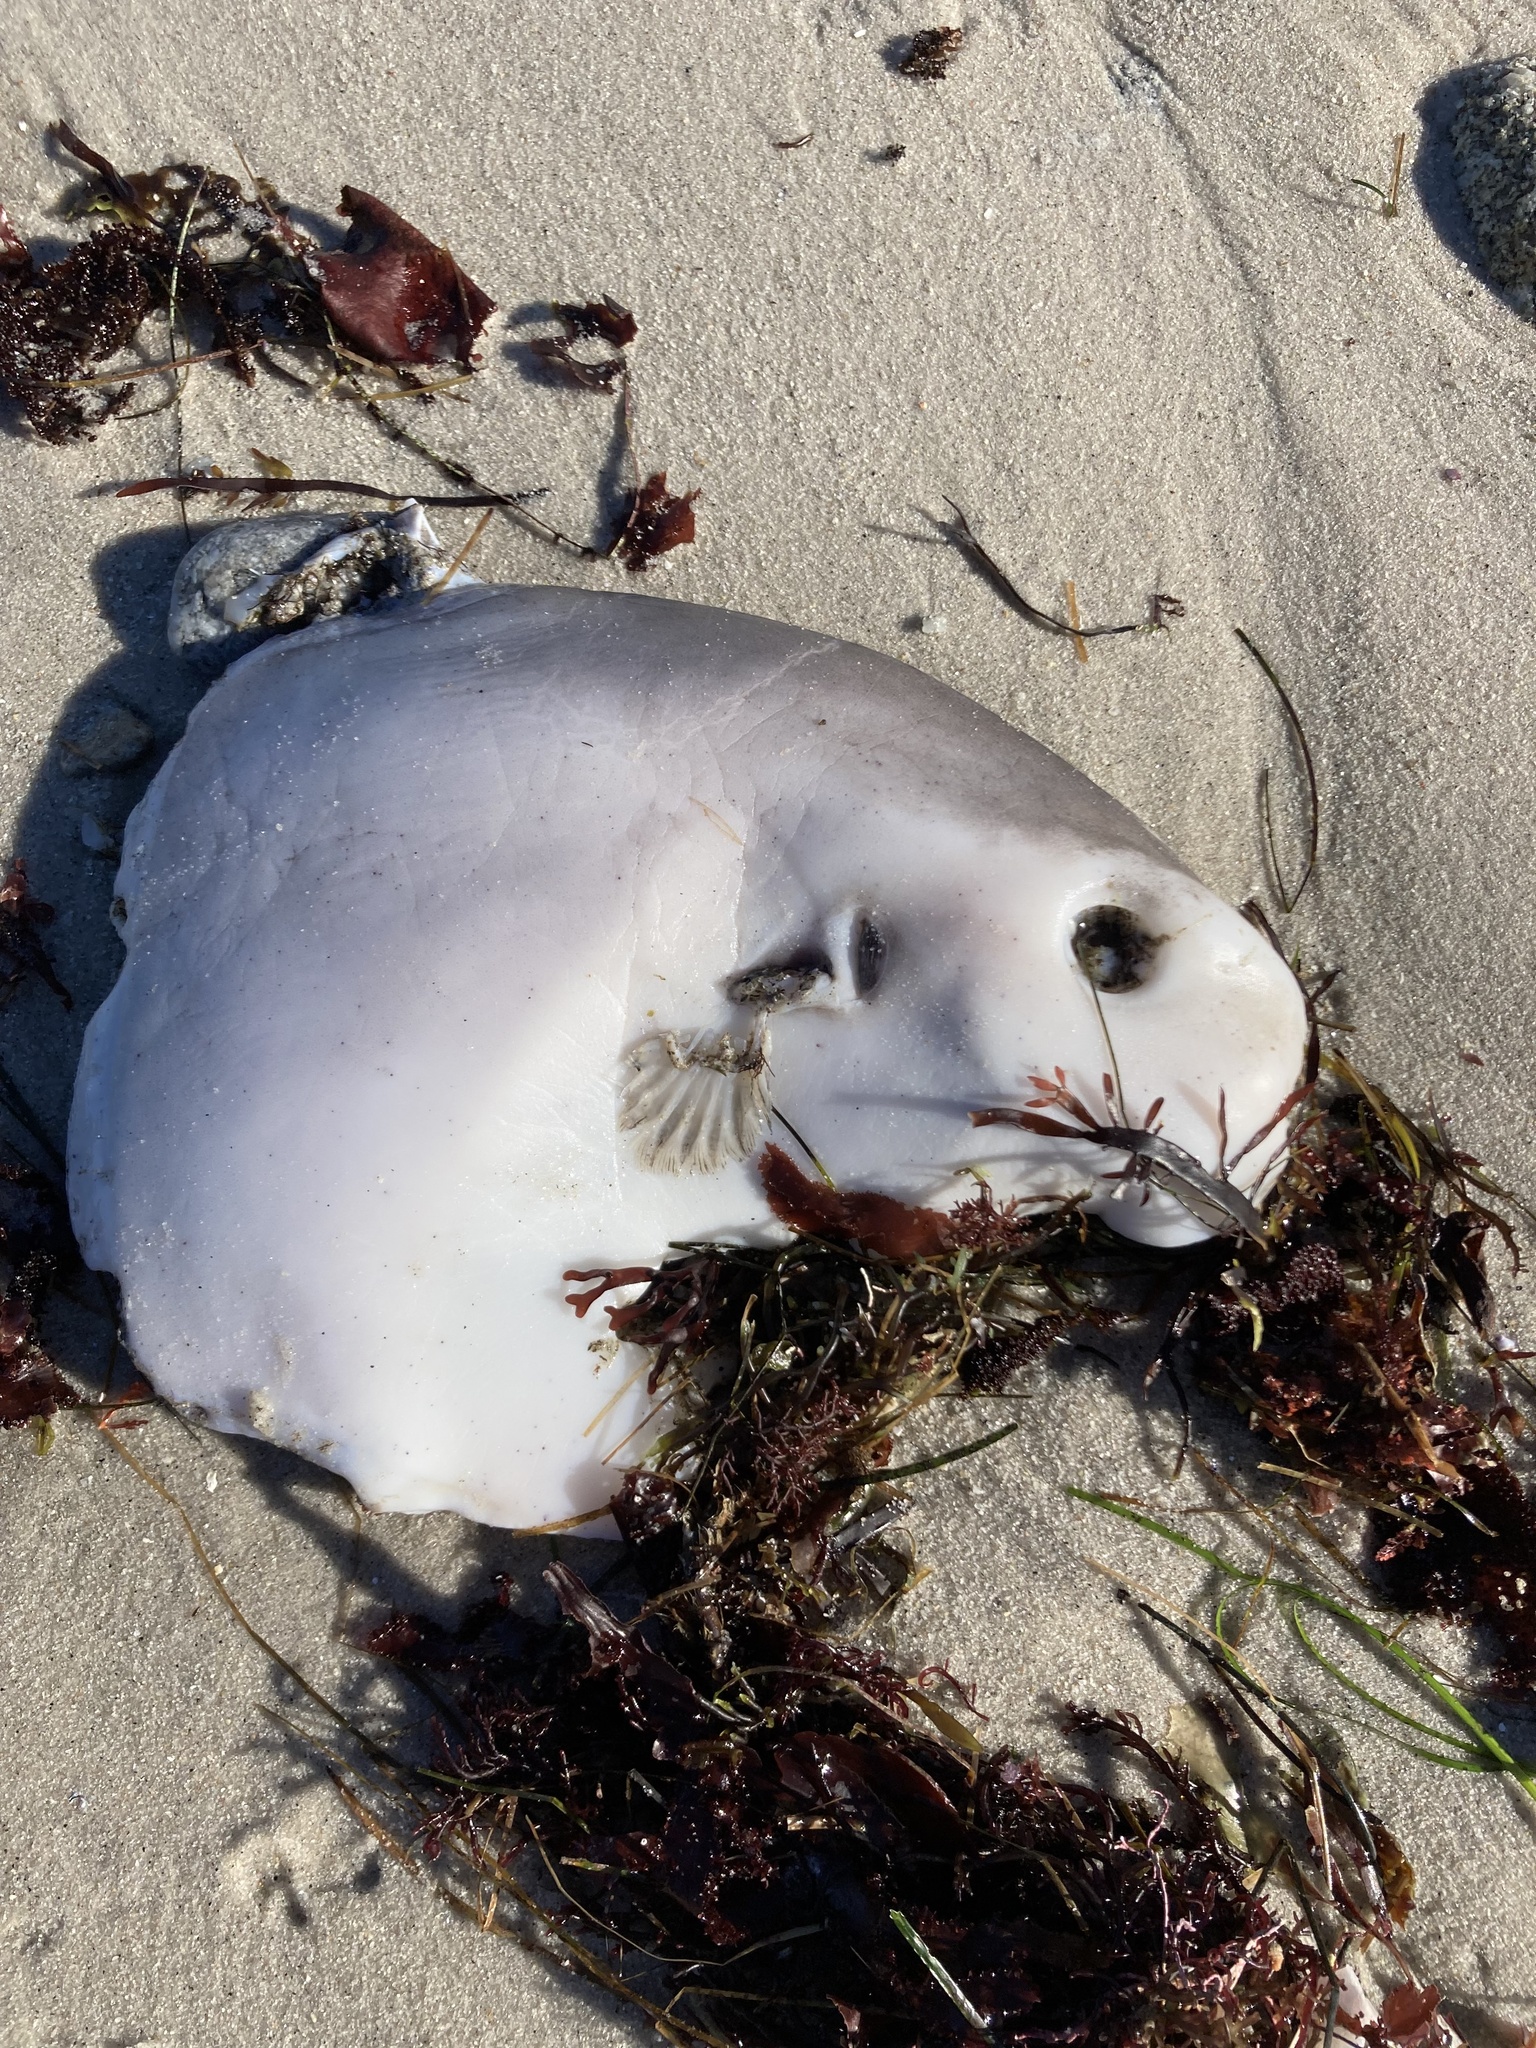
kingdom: Animalia
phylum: Chordata
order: Tetraodontiformes
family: Molidae
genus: Mola
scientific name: Mola mola
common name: Ocean sunfish
